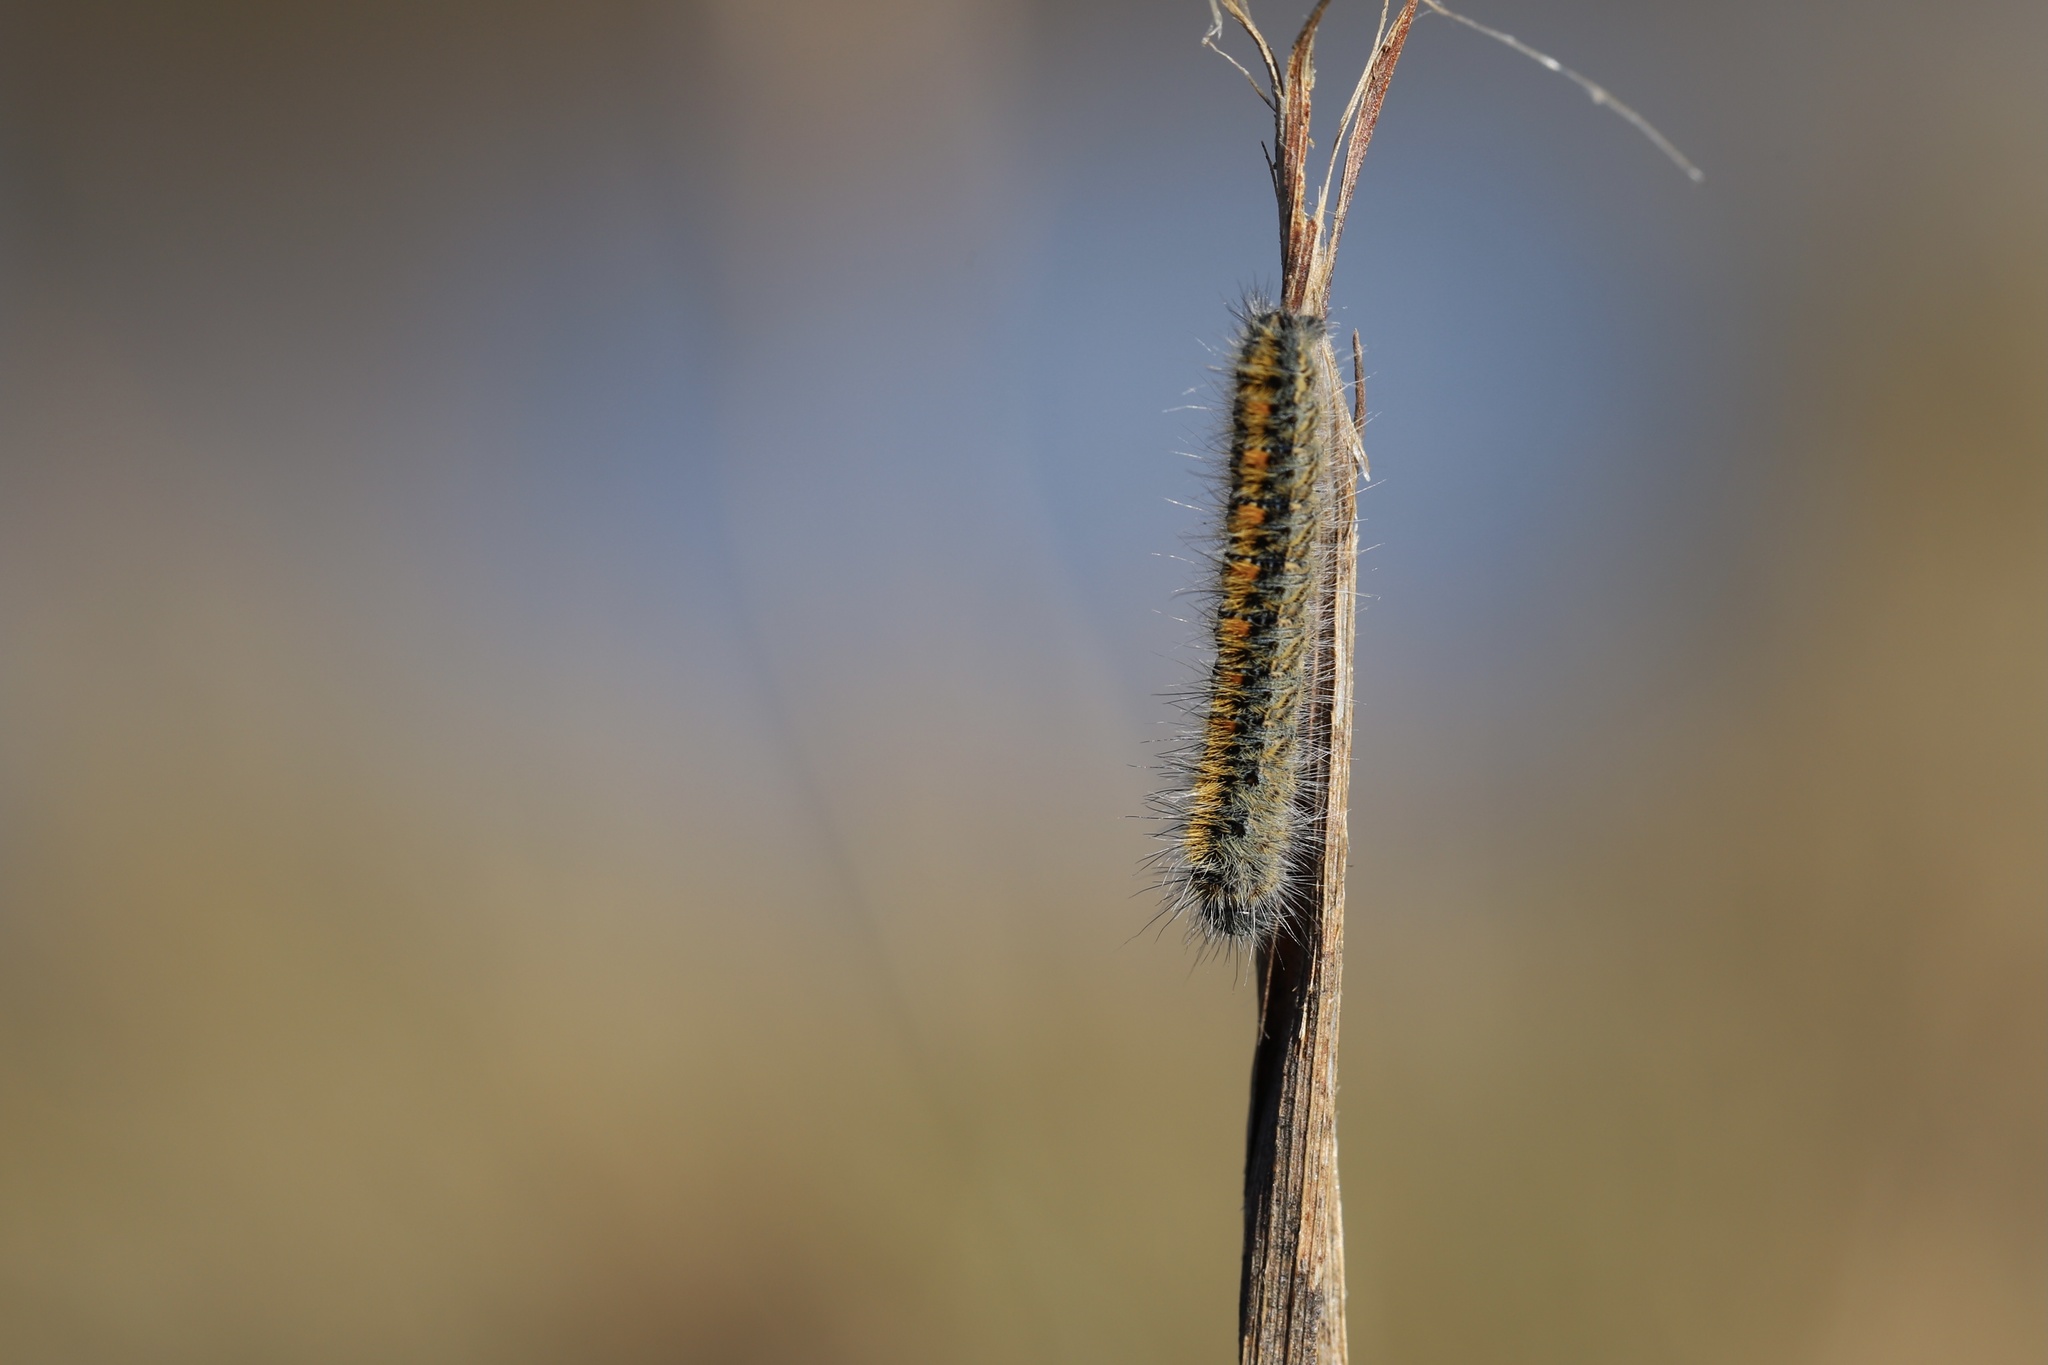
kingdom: Animalia
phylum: Arthropoda
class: Insecta
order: Lepidoptera
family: Lasiocampidae
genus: Lasiocampa
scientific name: Lasiocampa trifolii
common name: Grass eggar
